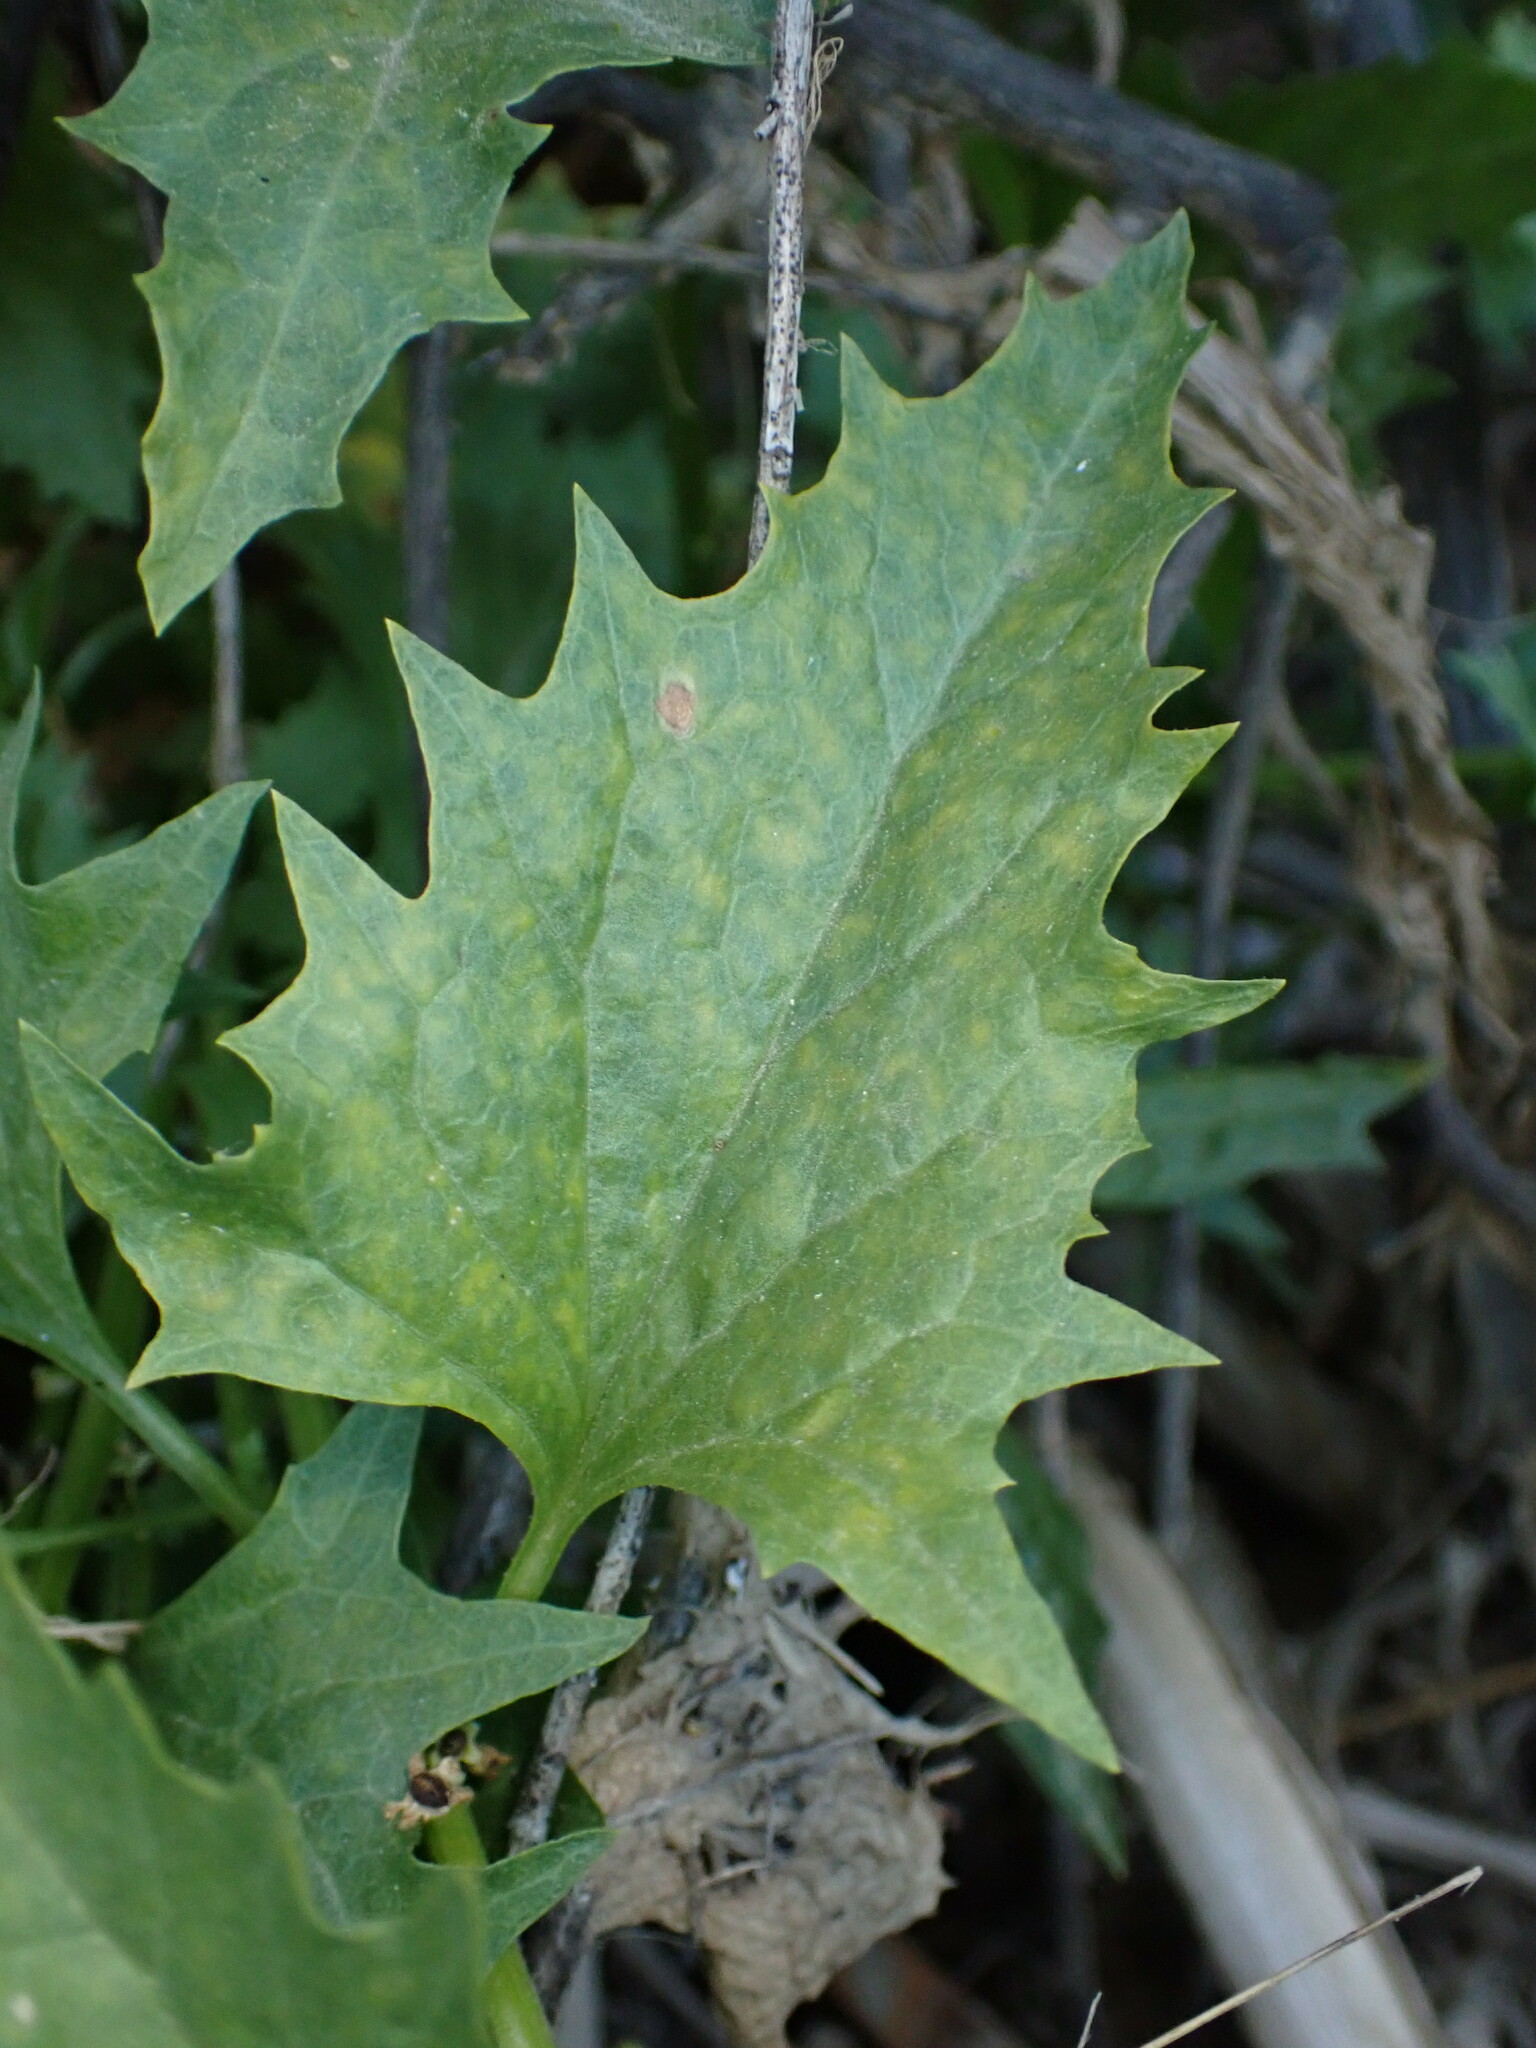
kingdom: Plantae
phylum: Tracheophyta
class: Magnoliopsida
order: Caryophyllales
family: Amaranthaceae
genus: Blitum
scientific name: Blitum californicum
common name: California goosefoot
